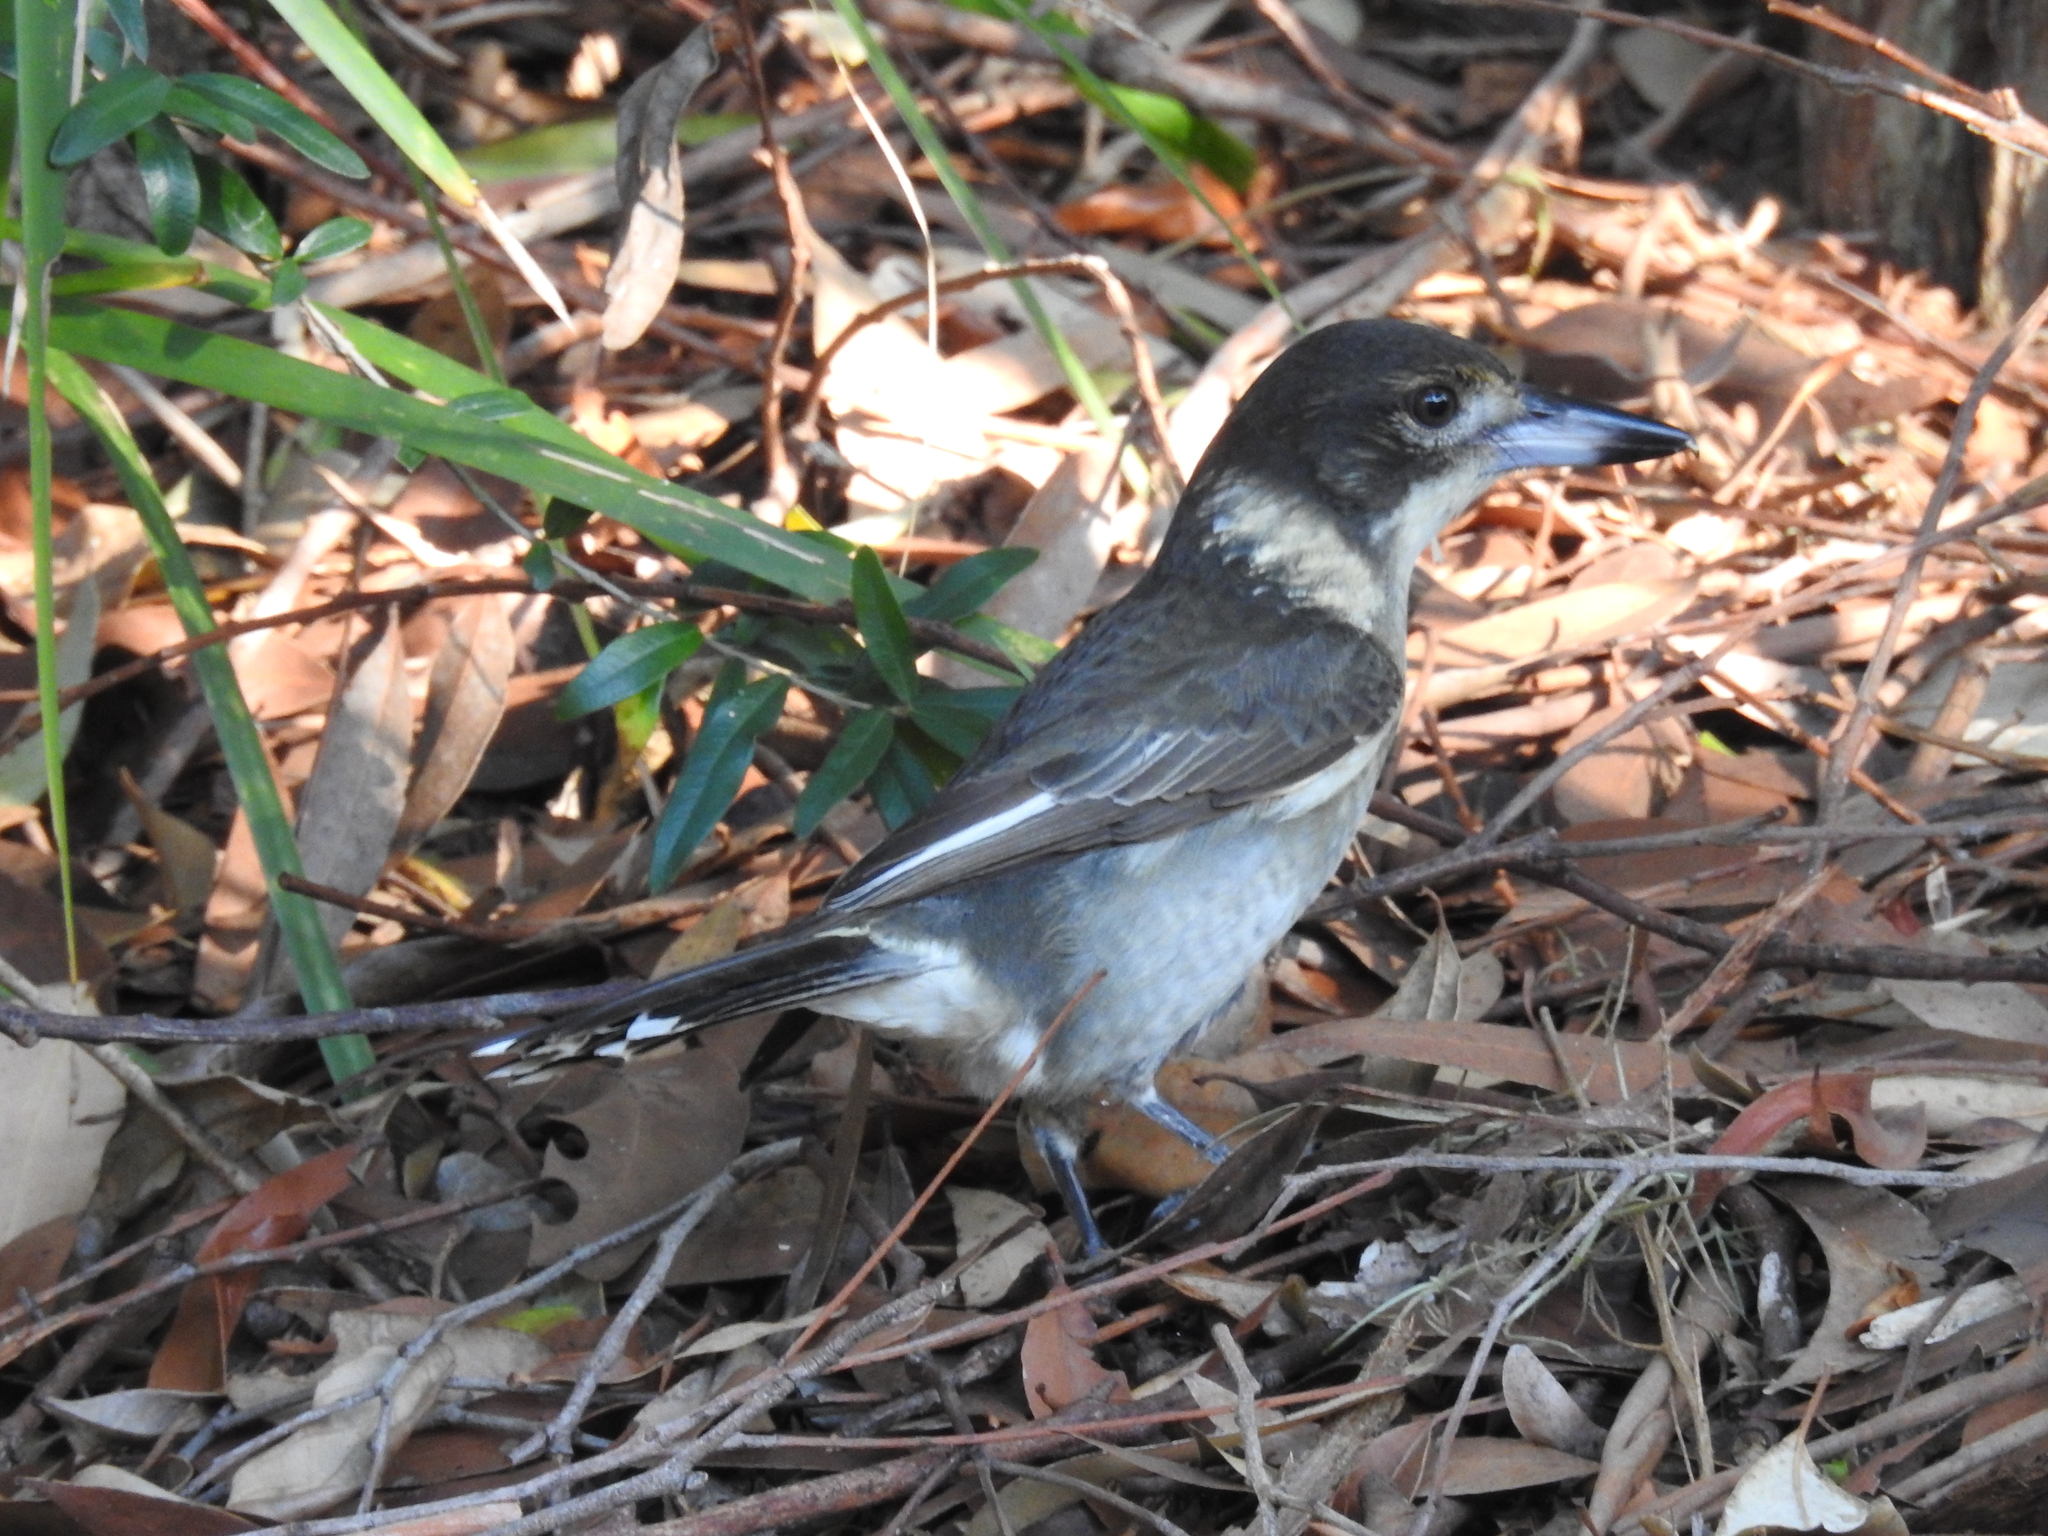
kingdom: Animalia
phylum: Chordata
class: Aves
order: Passeriformes
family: Cracticidae
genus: Cracticus
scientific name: Cracticus torquatus
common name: Grey butcherbird
